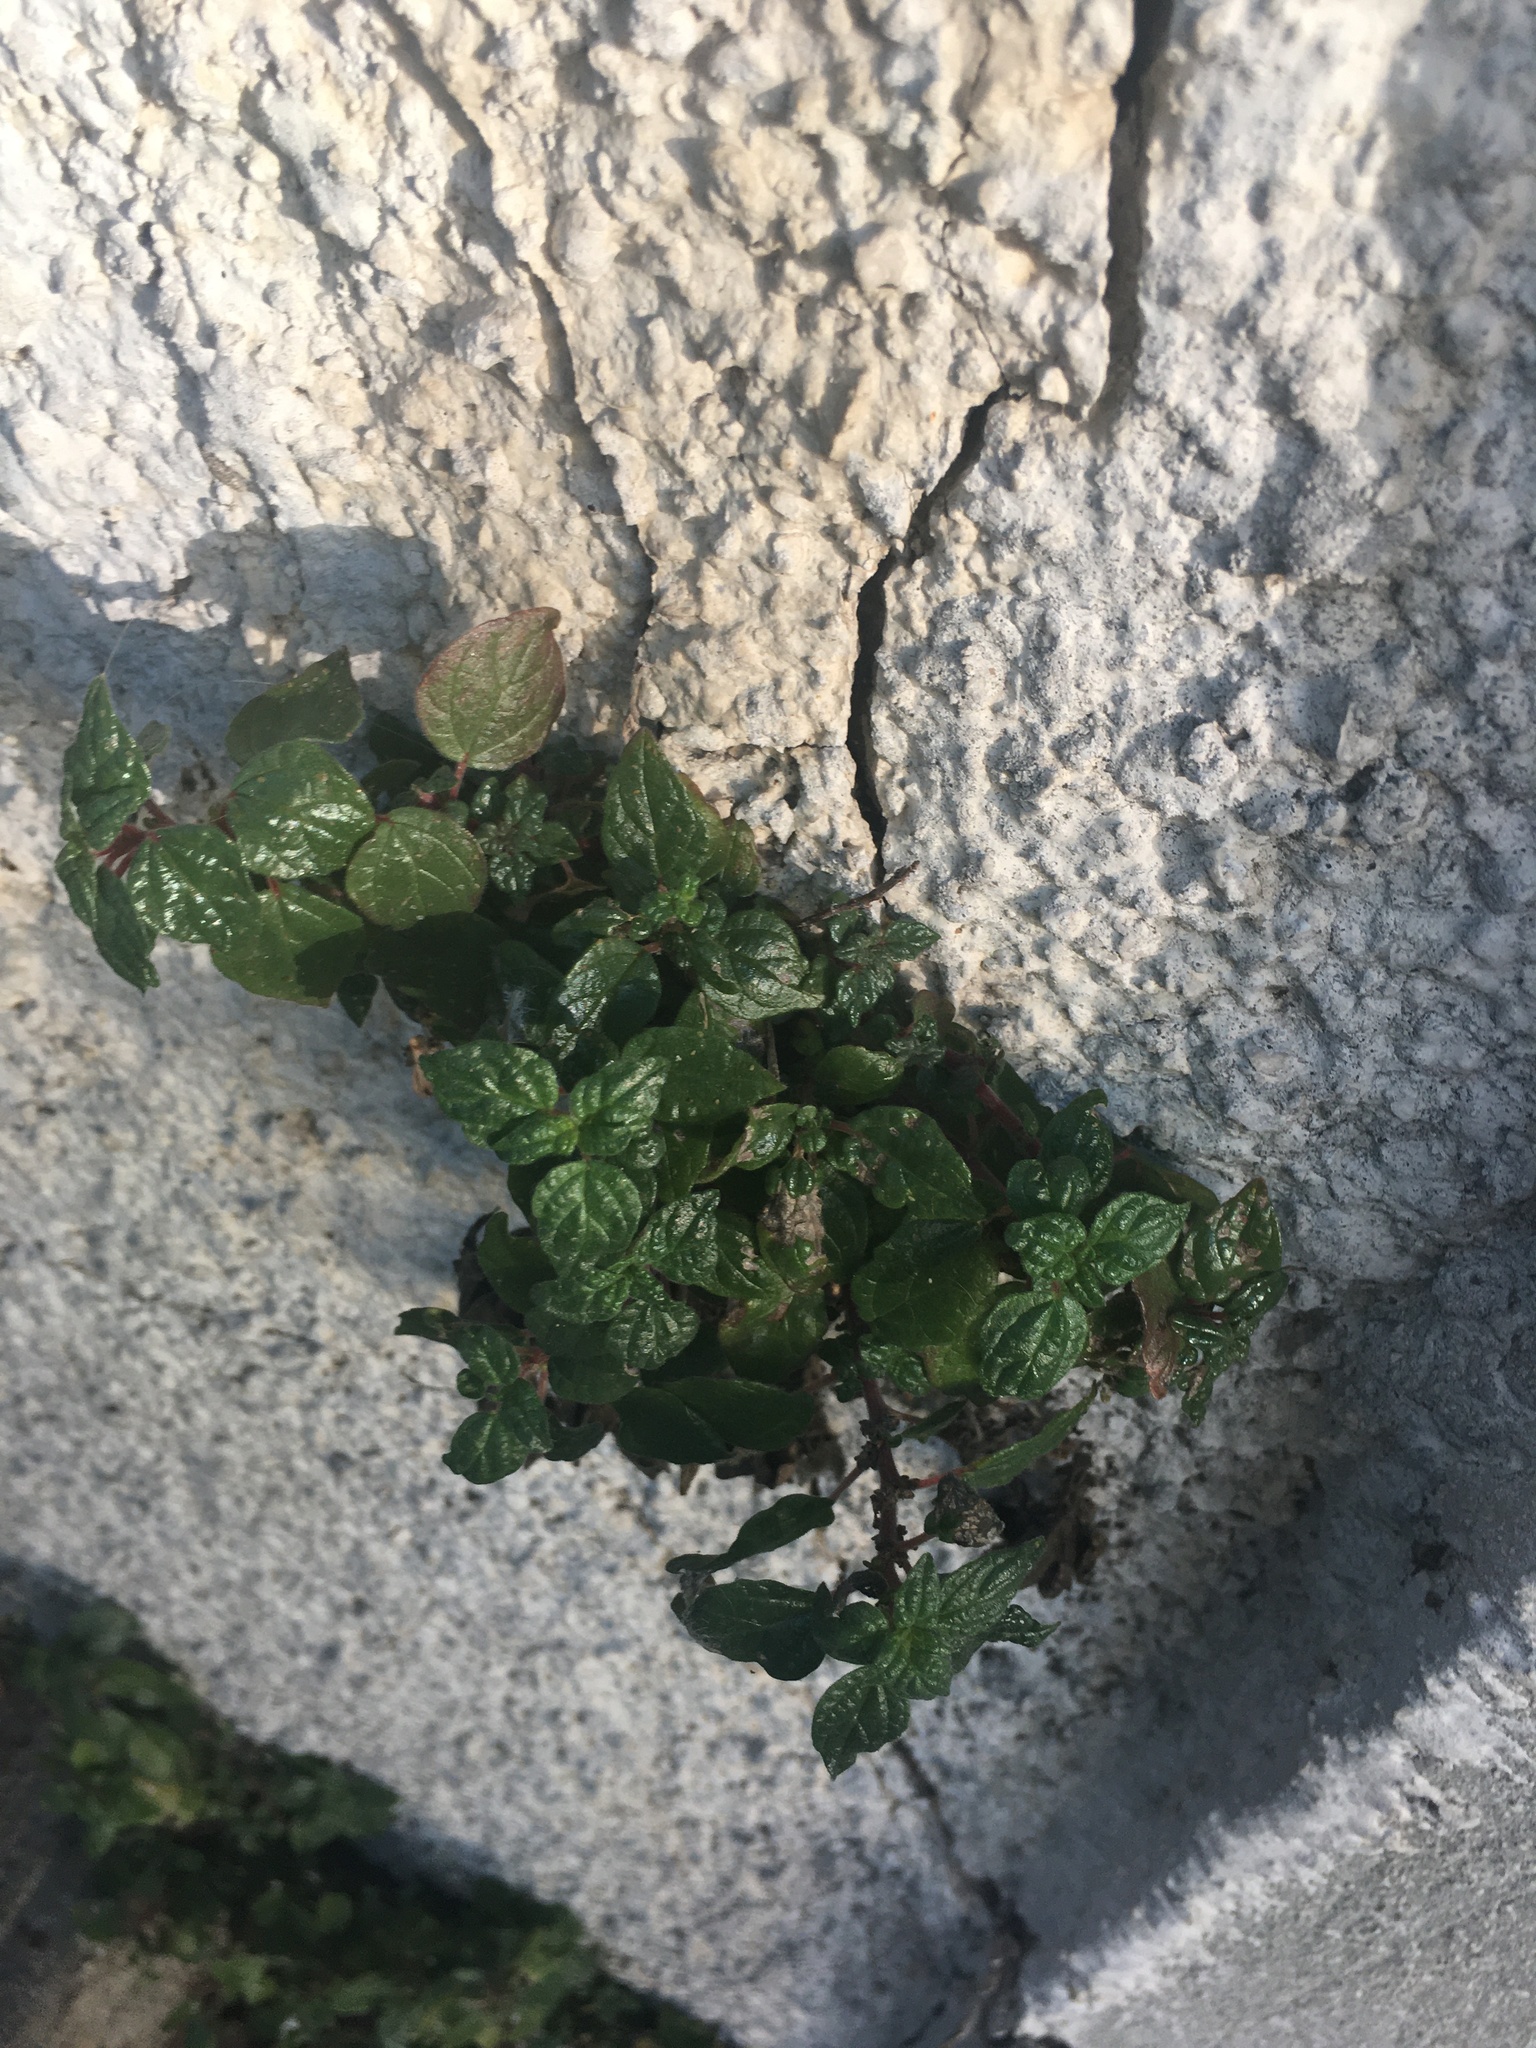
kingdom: Plantae
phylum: Tracheophyta
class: Magnoliopsida
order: Rosales
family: Urticaceae
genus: Parietaria
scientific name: Parietaria judaica
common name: Pellitory-of-the-wall
